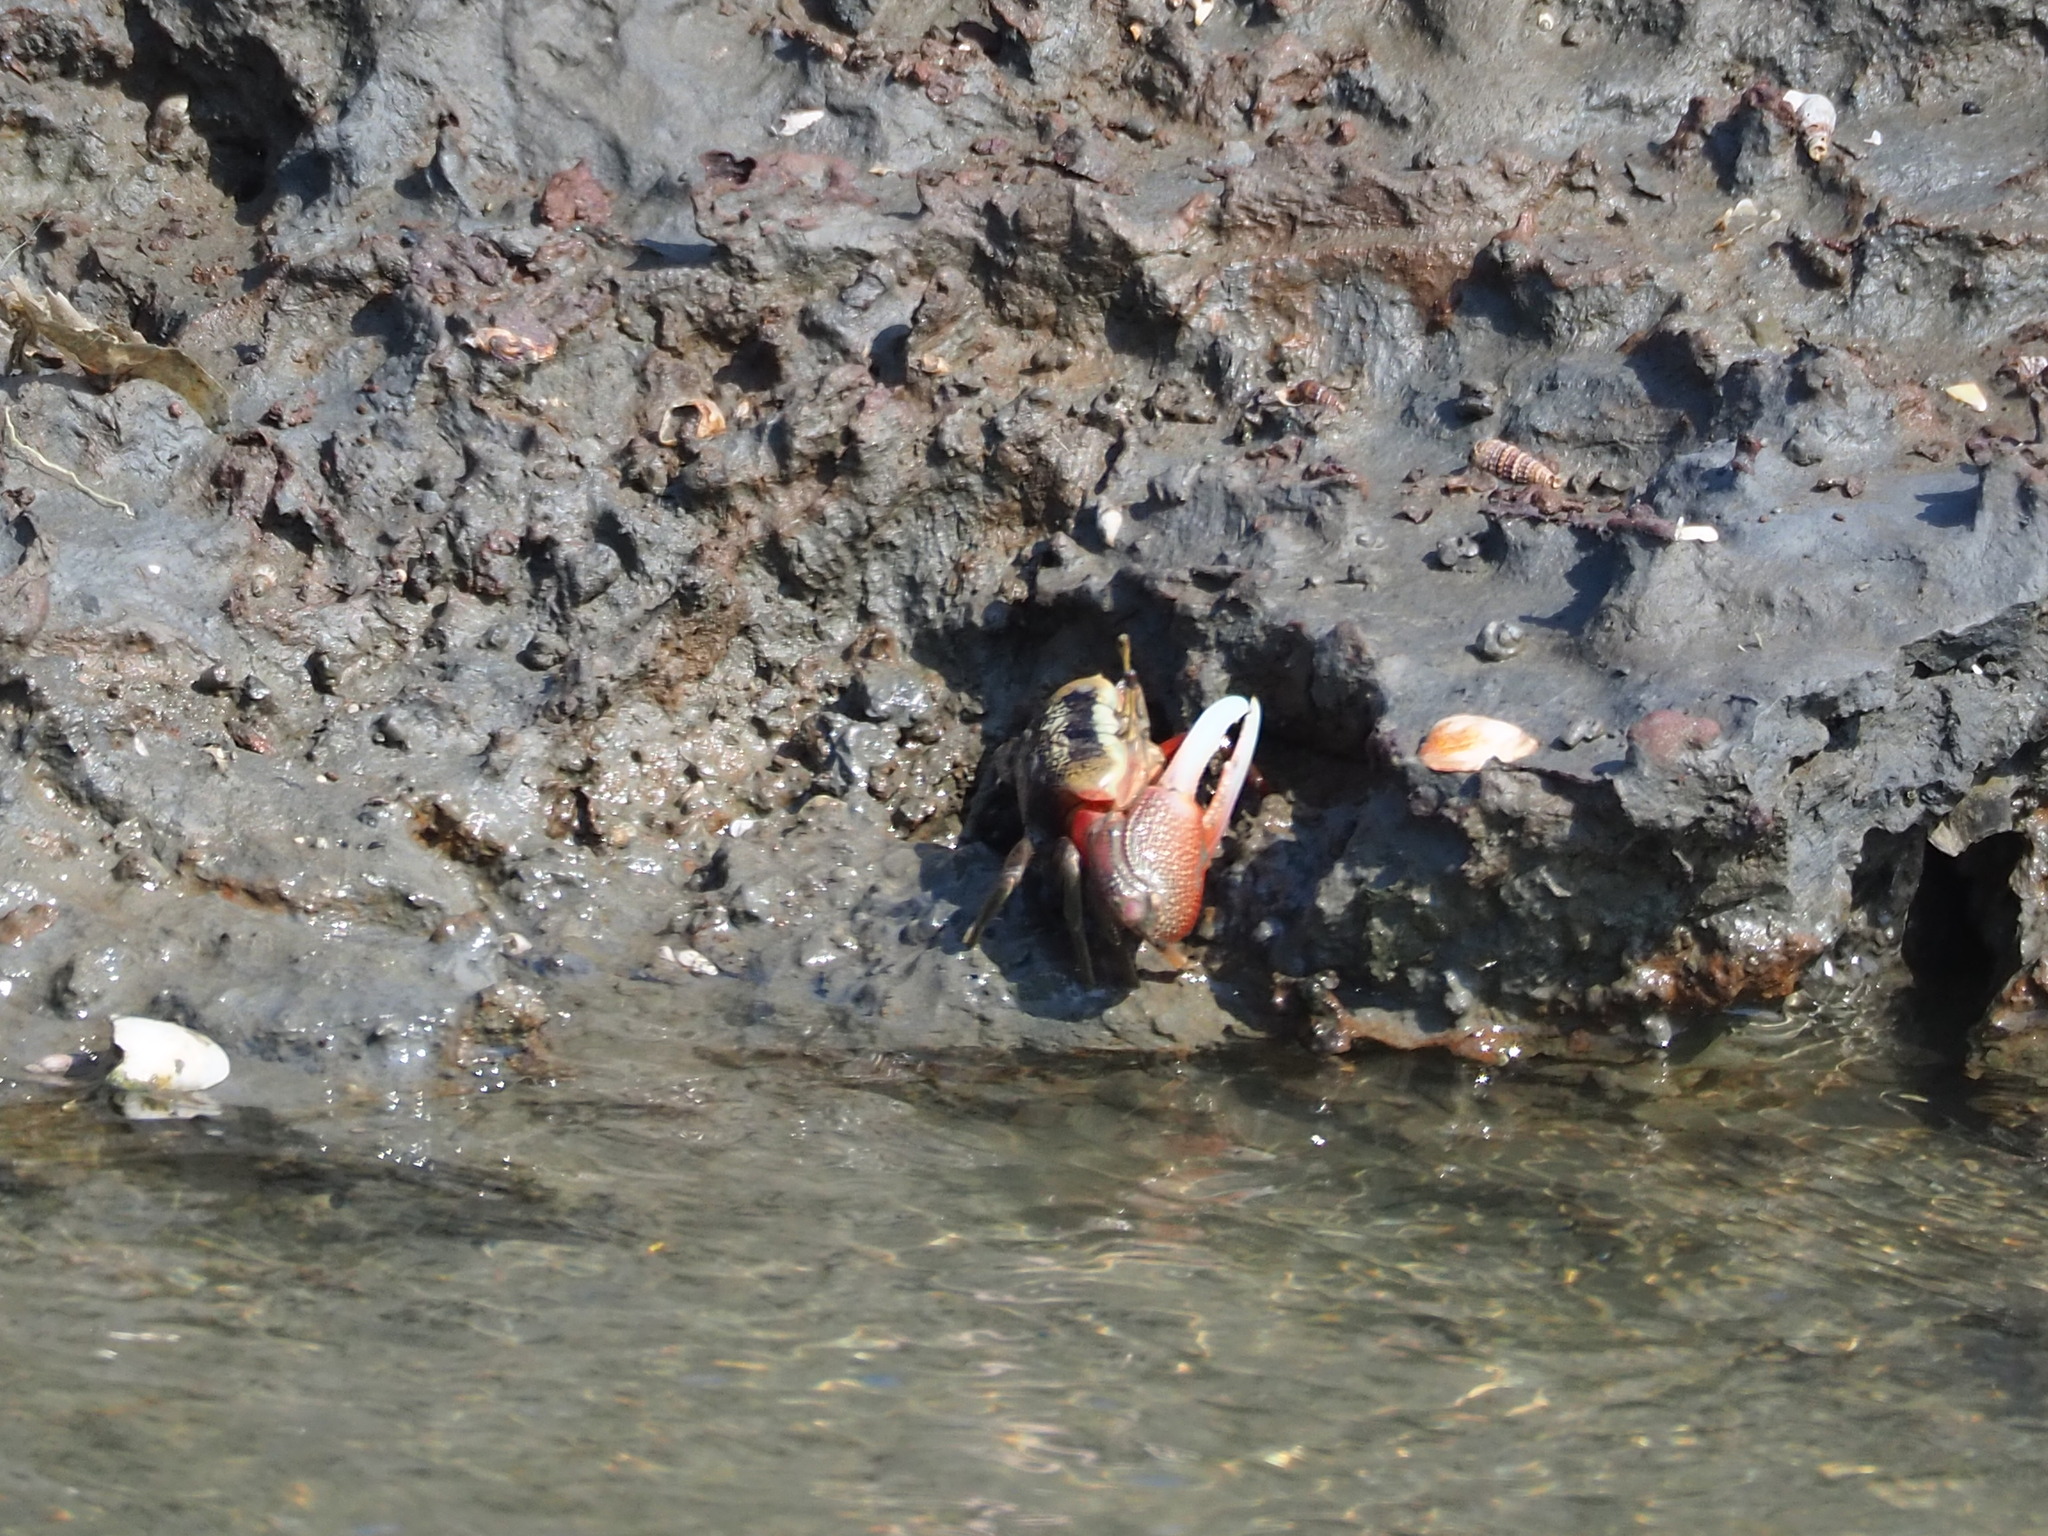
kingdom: Animalia
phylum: Arthropoda
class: Malacostraca
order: Decapoda
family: Ocypodidae
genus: Tubuca
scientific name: Tubuca arcuata
